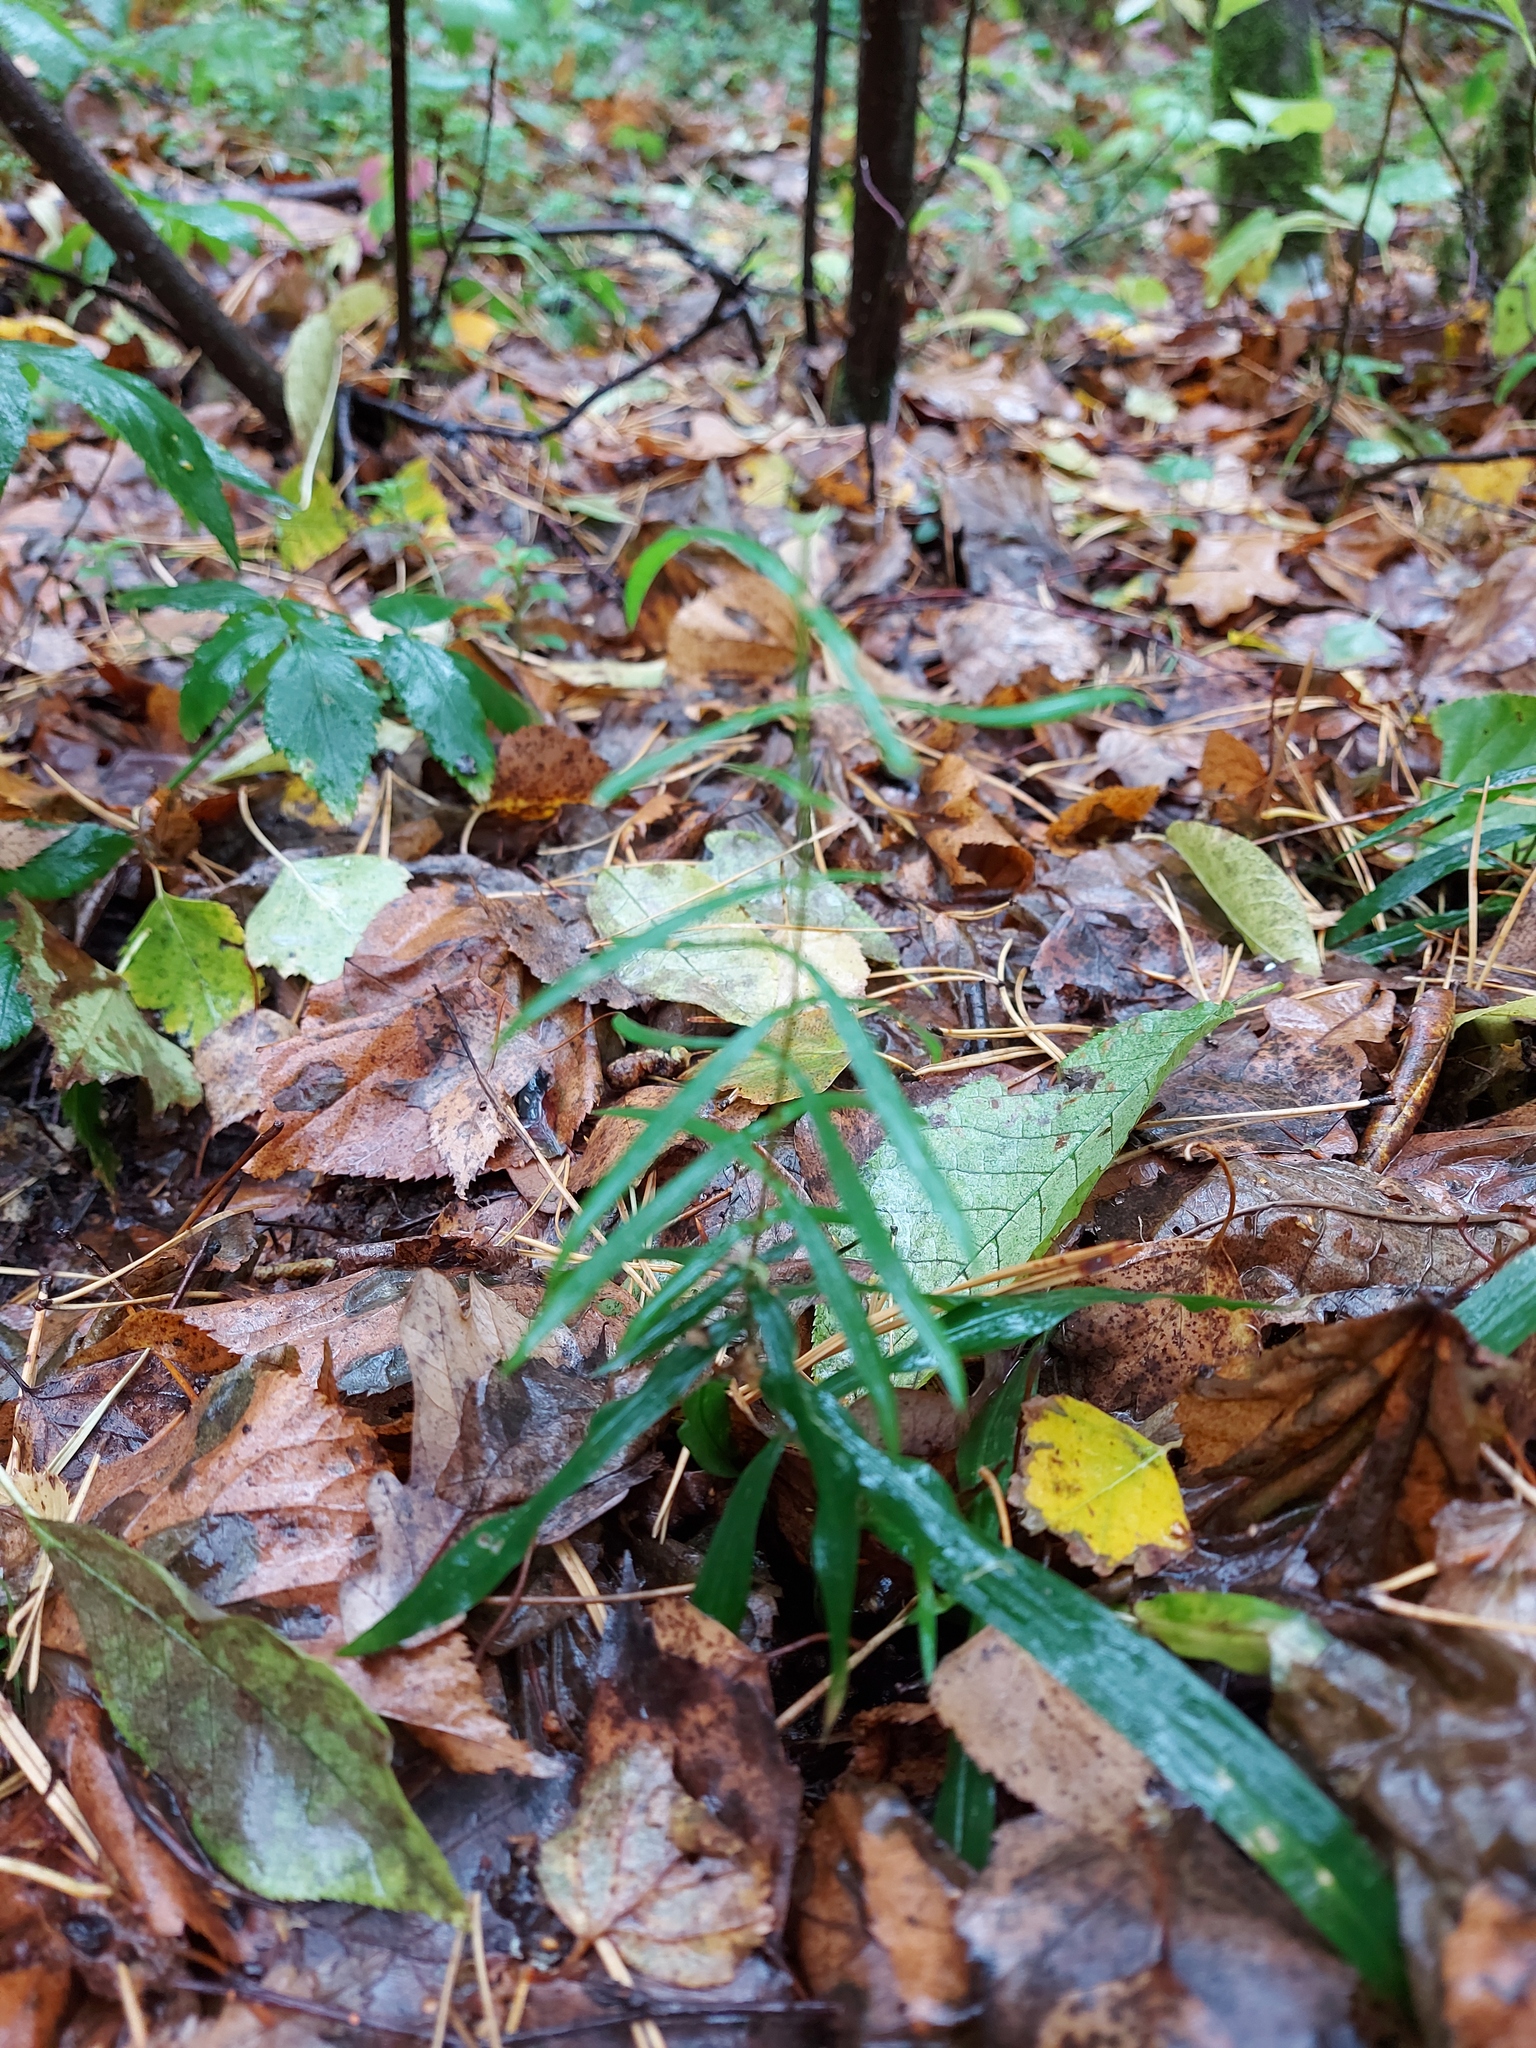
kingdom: Plantae
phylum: Tracheophyta
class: Magnoliopsida
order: Caryophyllales
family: Caryophyllaceae
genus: Rabelera
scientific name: Rabelera holostea
